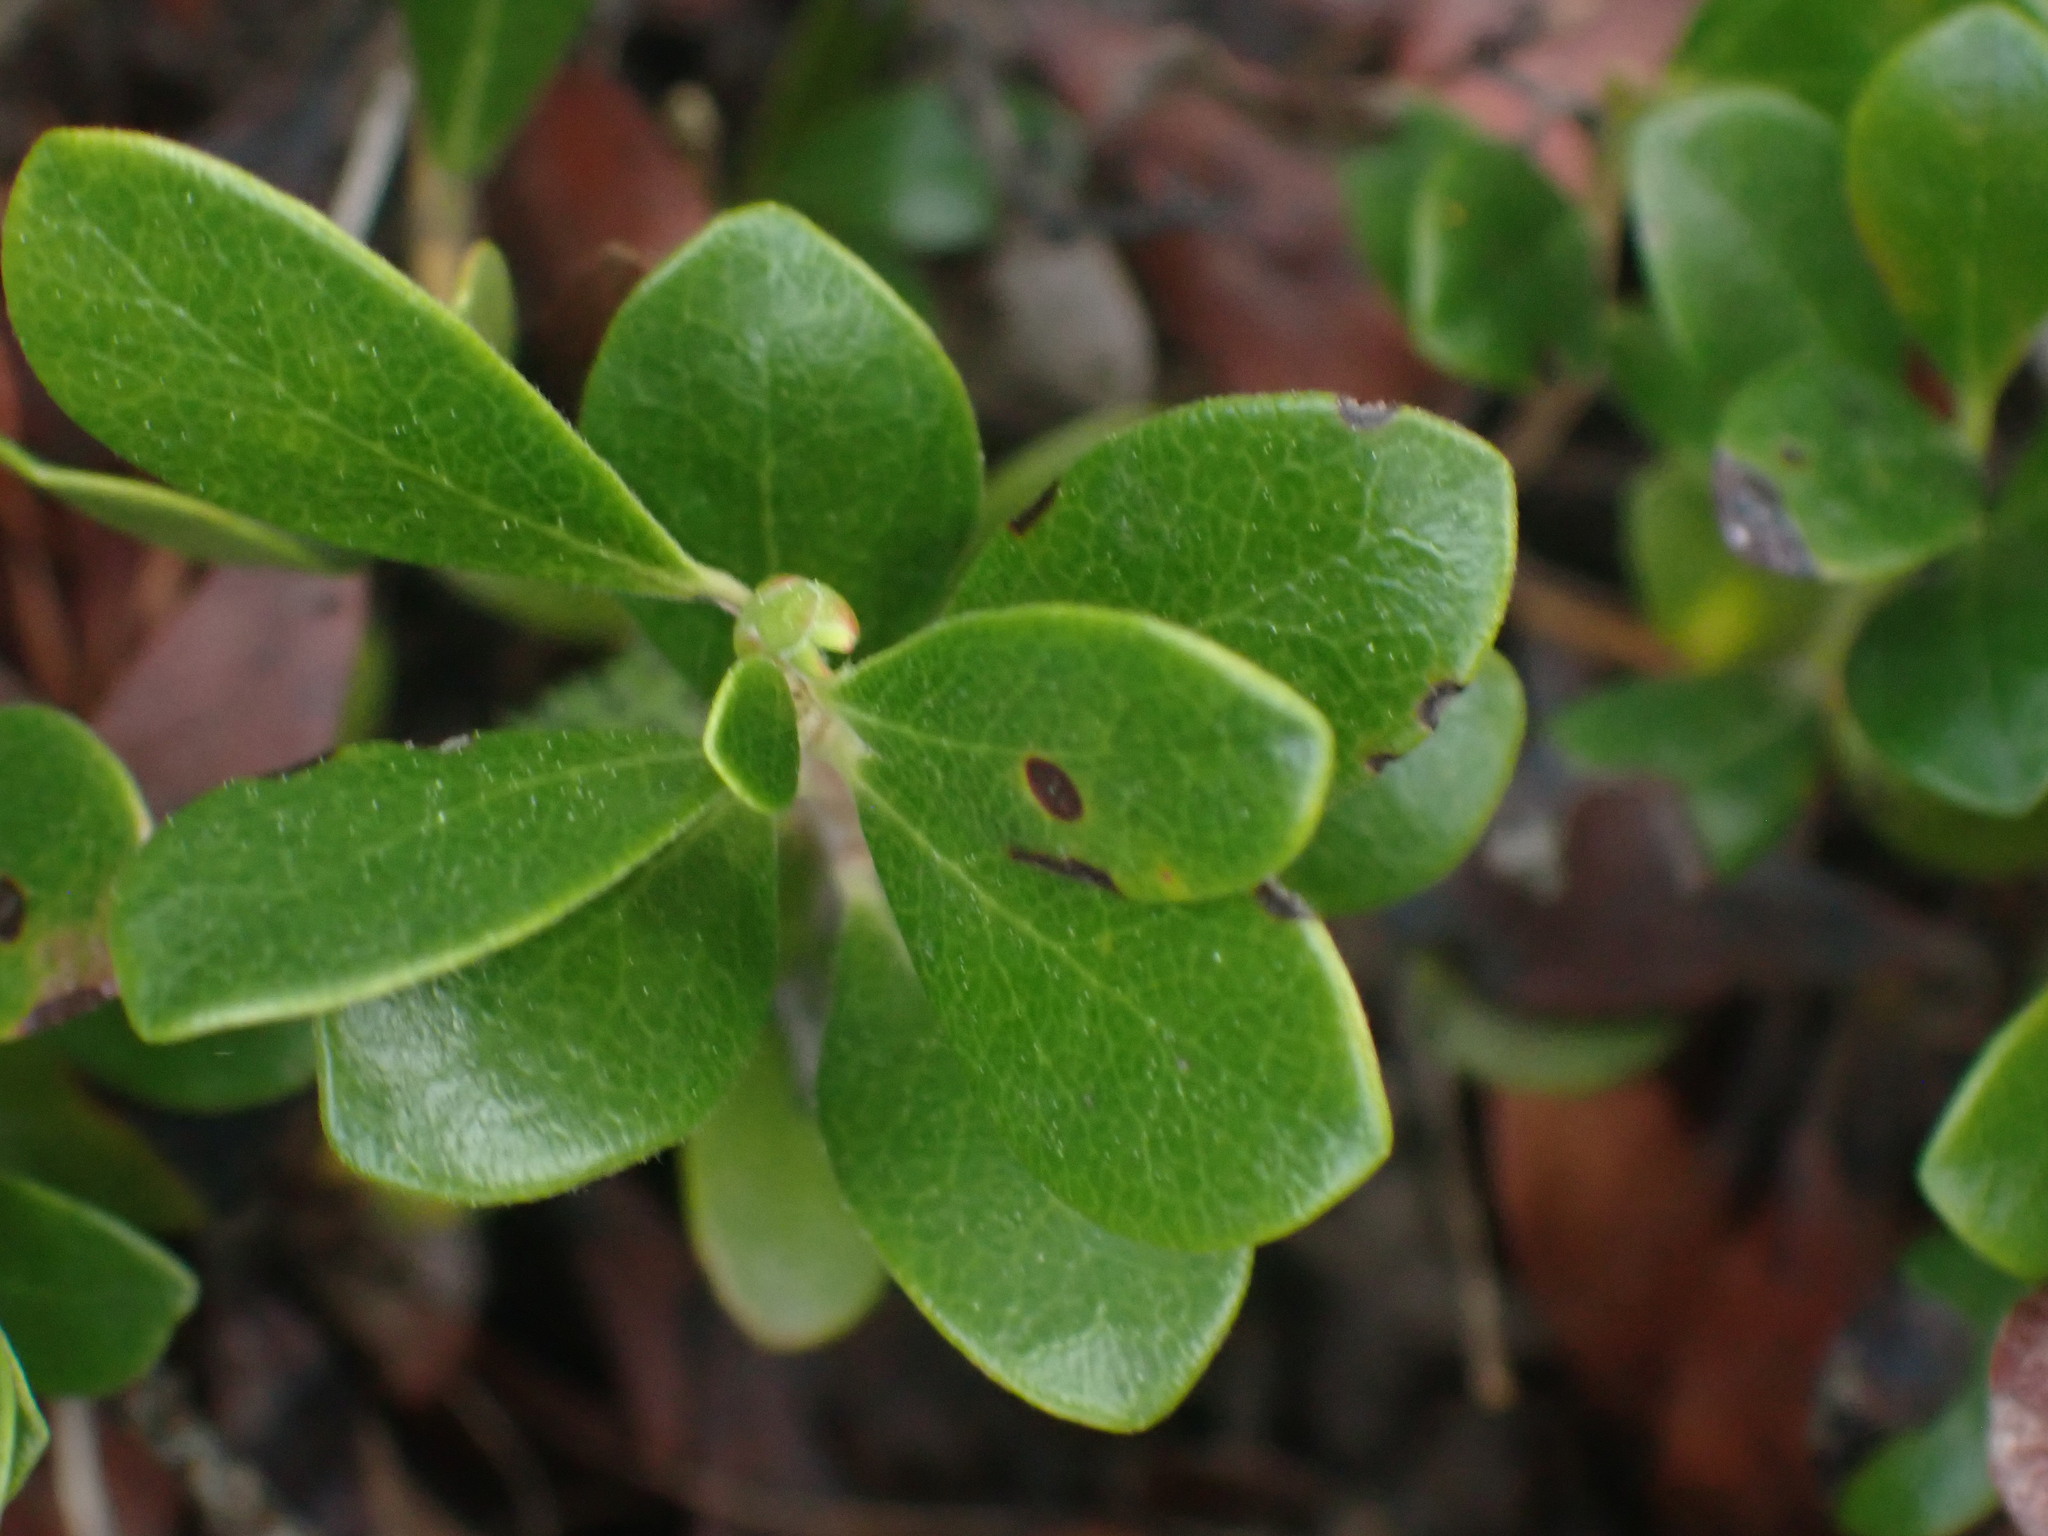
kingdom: Plantae
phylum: Tracheophyta
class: Magnoliopsida
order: Ericales
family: Ericaceae
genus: Arctostaphylos
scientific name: Arctostaphylos uva-ursi
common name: Bearberry
